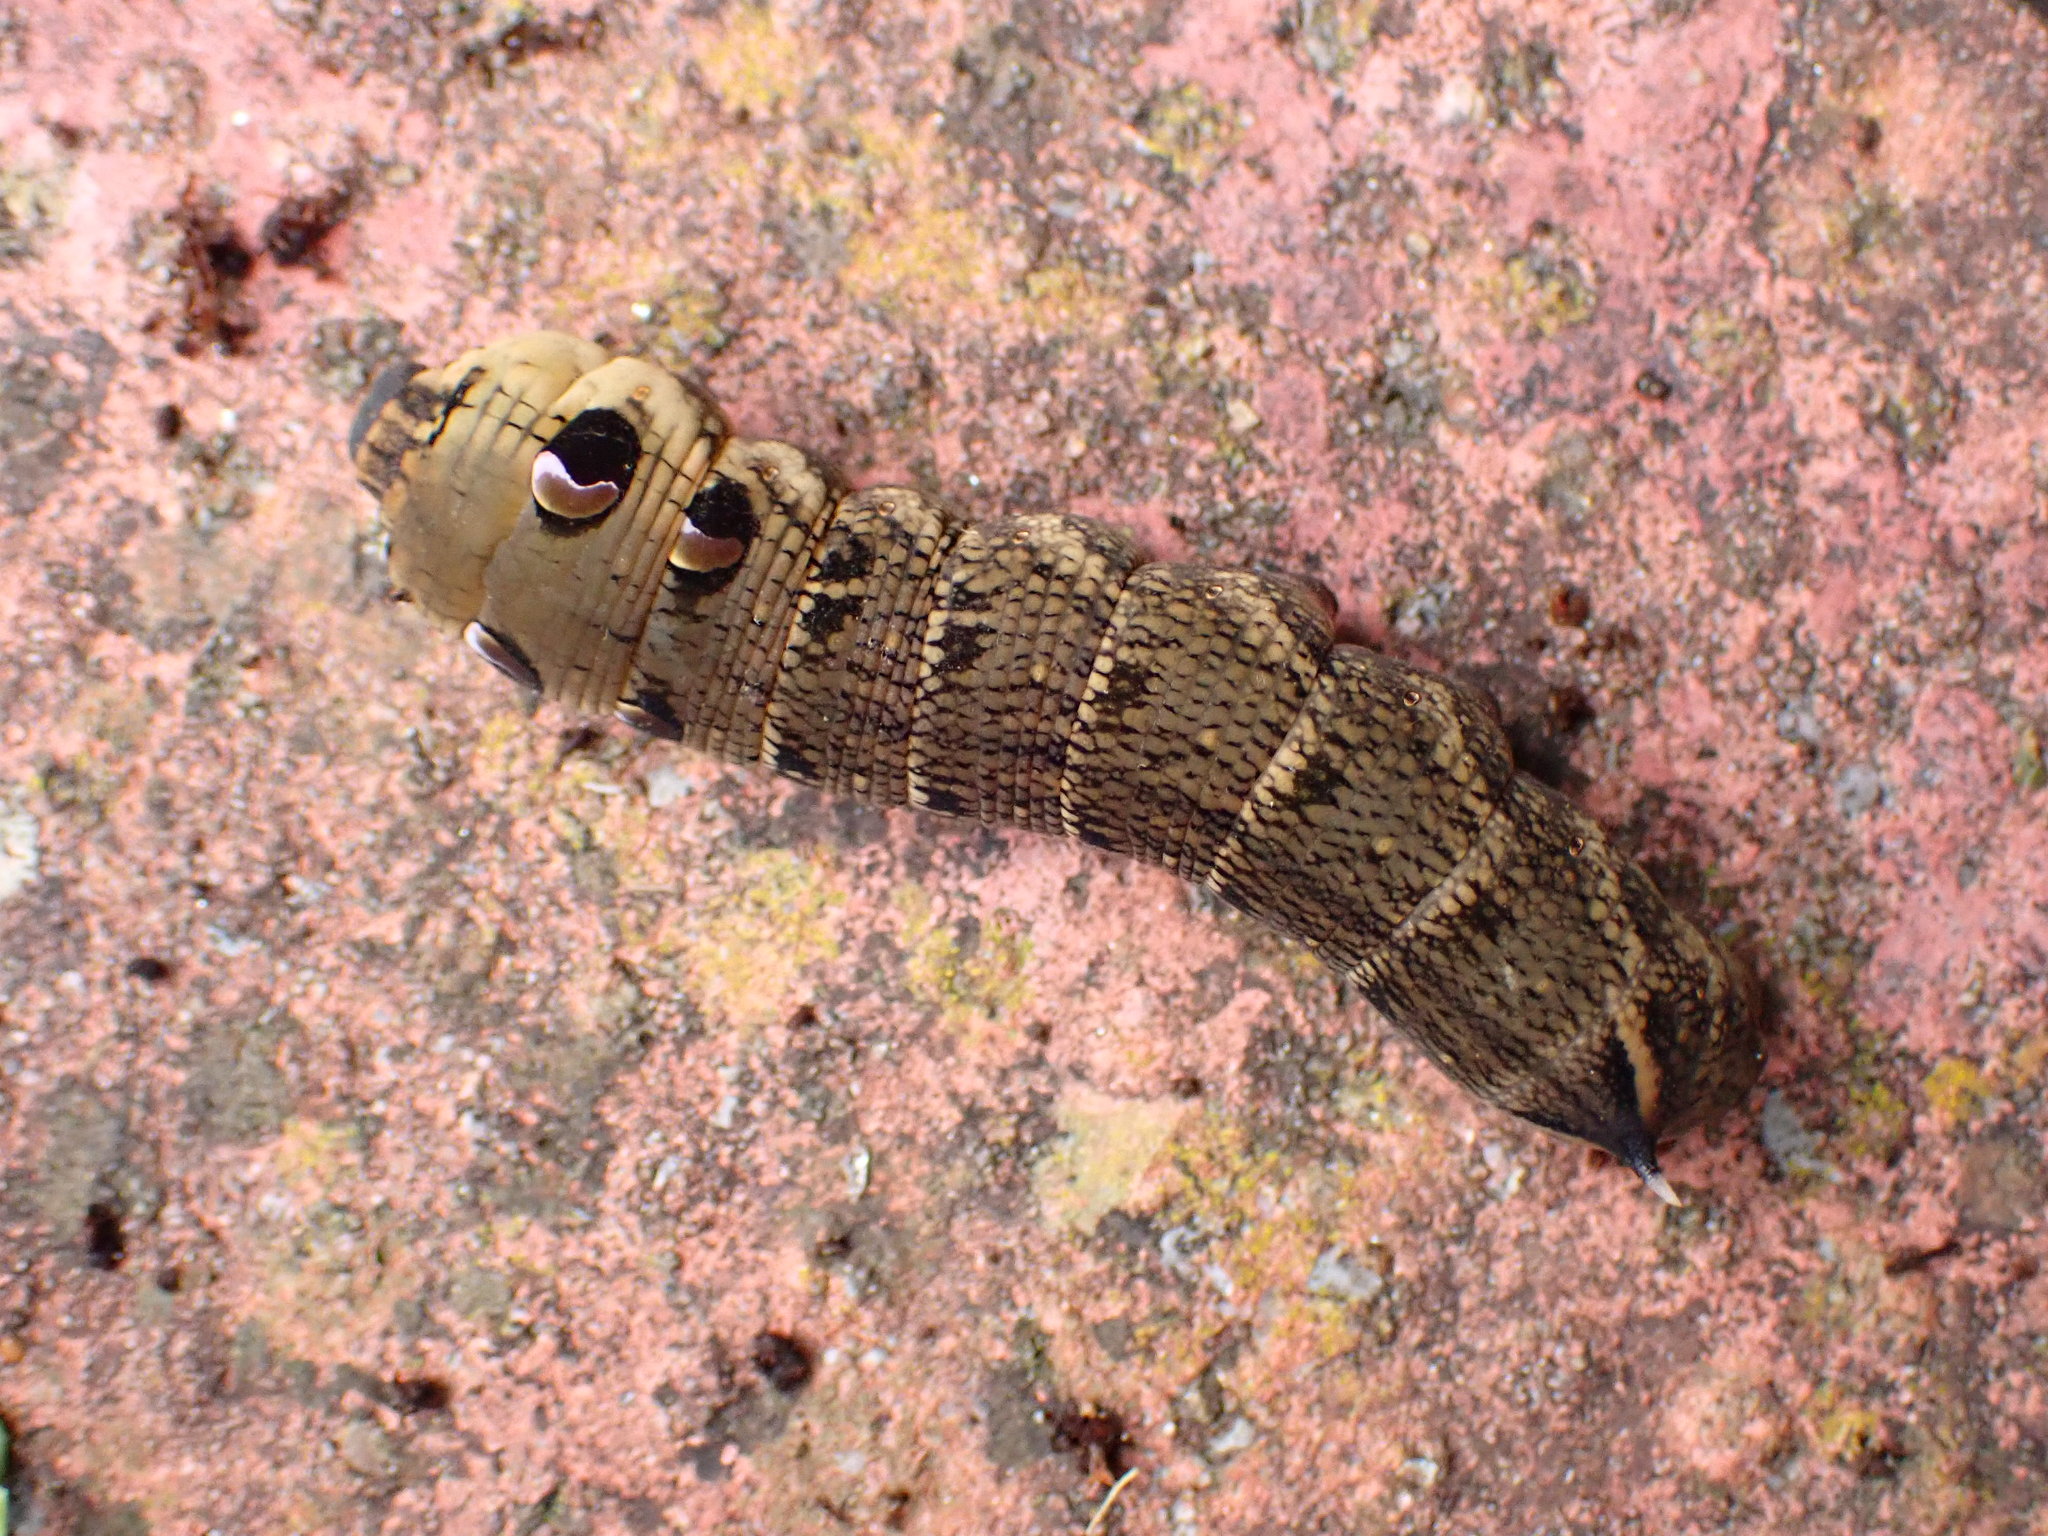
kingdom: Animalia
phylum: Arthropoda
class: Insecta
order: Lepidoptera
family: Sphingidae
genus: Deilephila
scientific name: Deilephila elpenor
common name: Elephant hawk-moth
